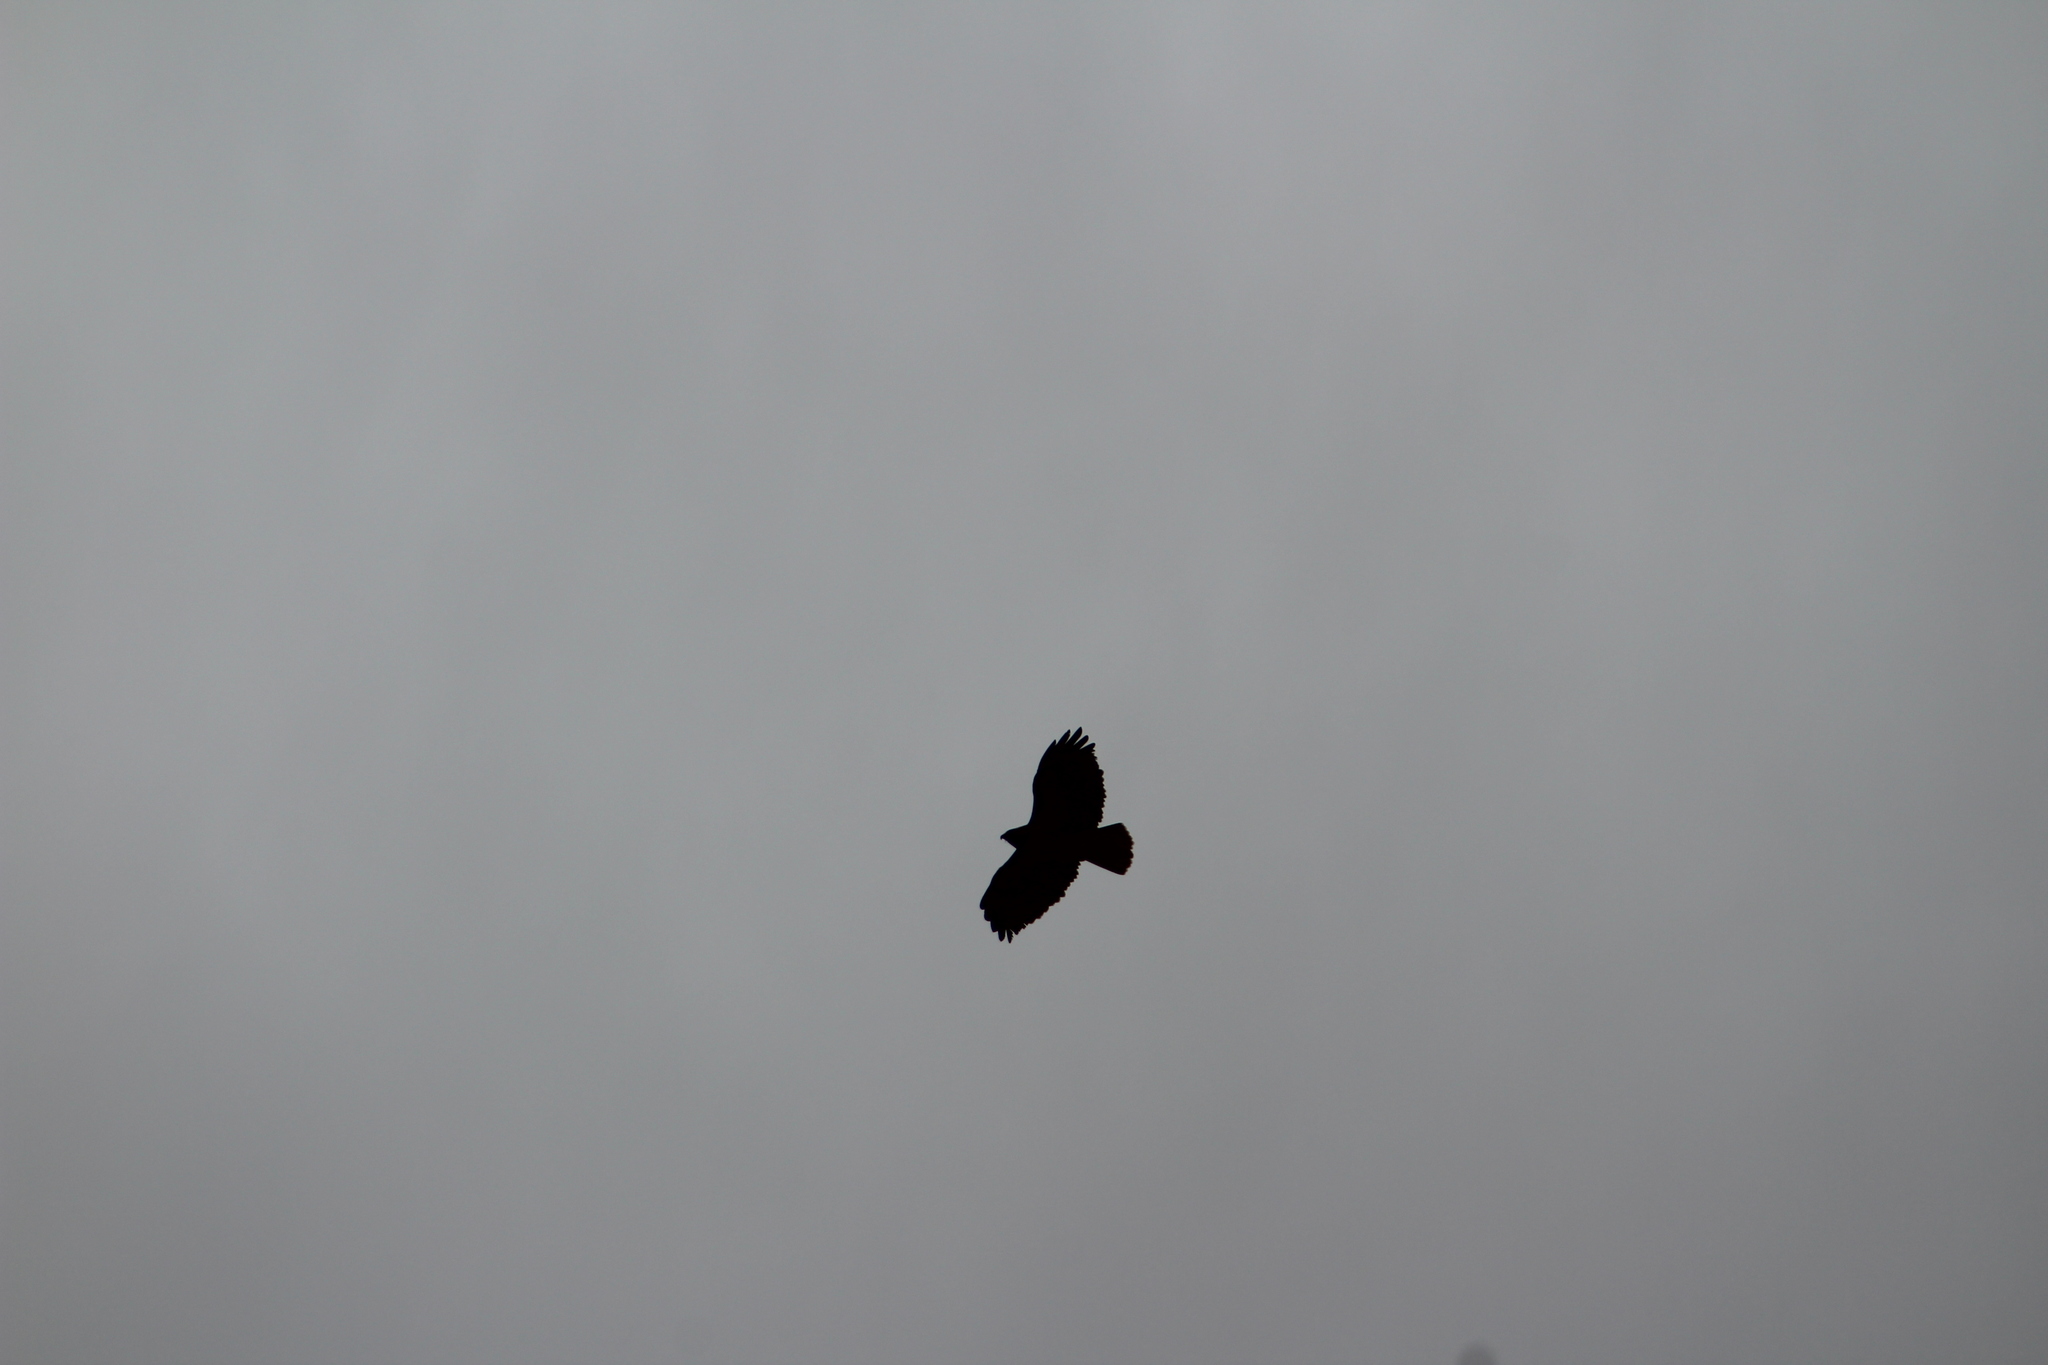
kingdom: Animalia
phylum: Chordata
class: Aves
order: Accipitriformes
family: Accipitridae
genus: Buteo
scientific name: Buteo jamaicensis
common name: Red-tailed hawk
